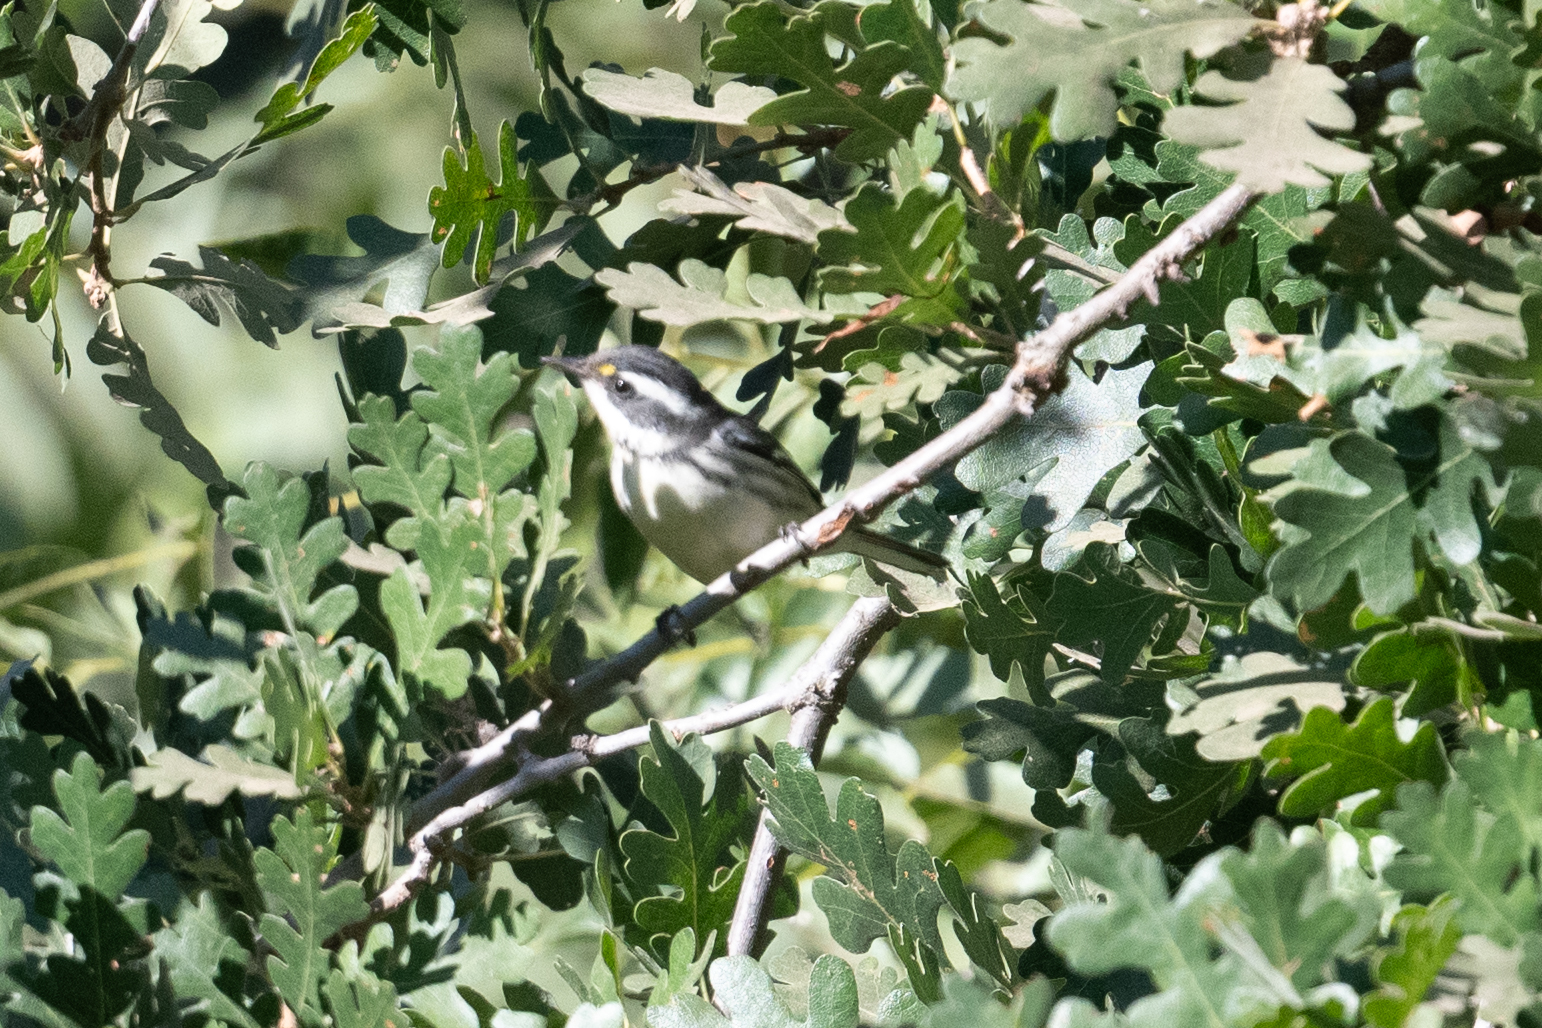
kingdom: Animalia
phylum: Chordata
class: Aves
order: Passeriformes
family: Parulidae
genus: Setophaga
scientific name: Setophaga nigrescens
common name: Black-throated gray warbler
